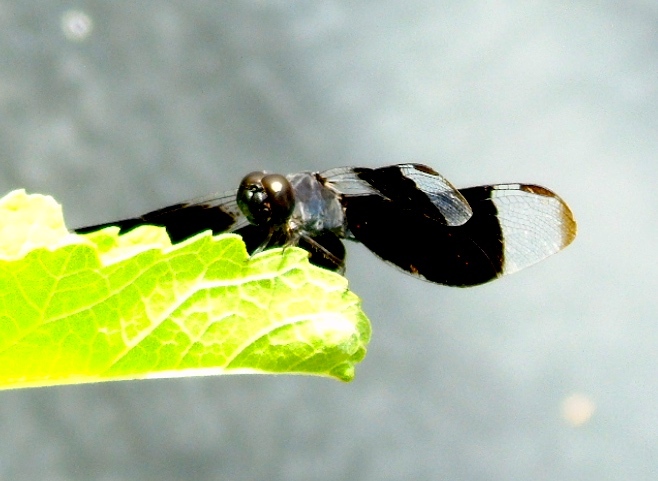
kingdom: Animalia
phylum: Arthropoda
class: Insecta
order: Odonata
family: Libellulidae
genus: Erythrodiplax
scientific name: Erythrodiplax funerea
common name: Black-winged dragonlet
